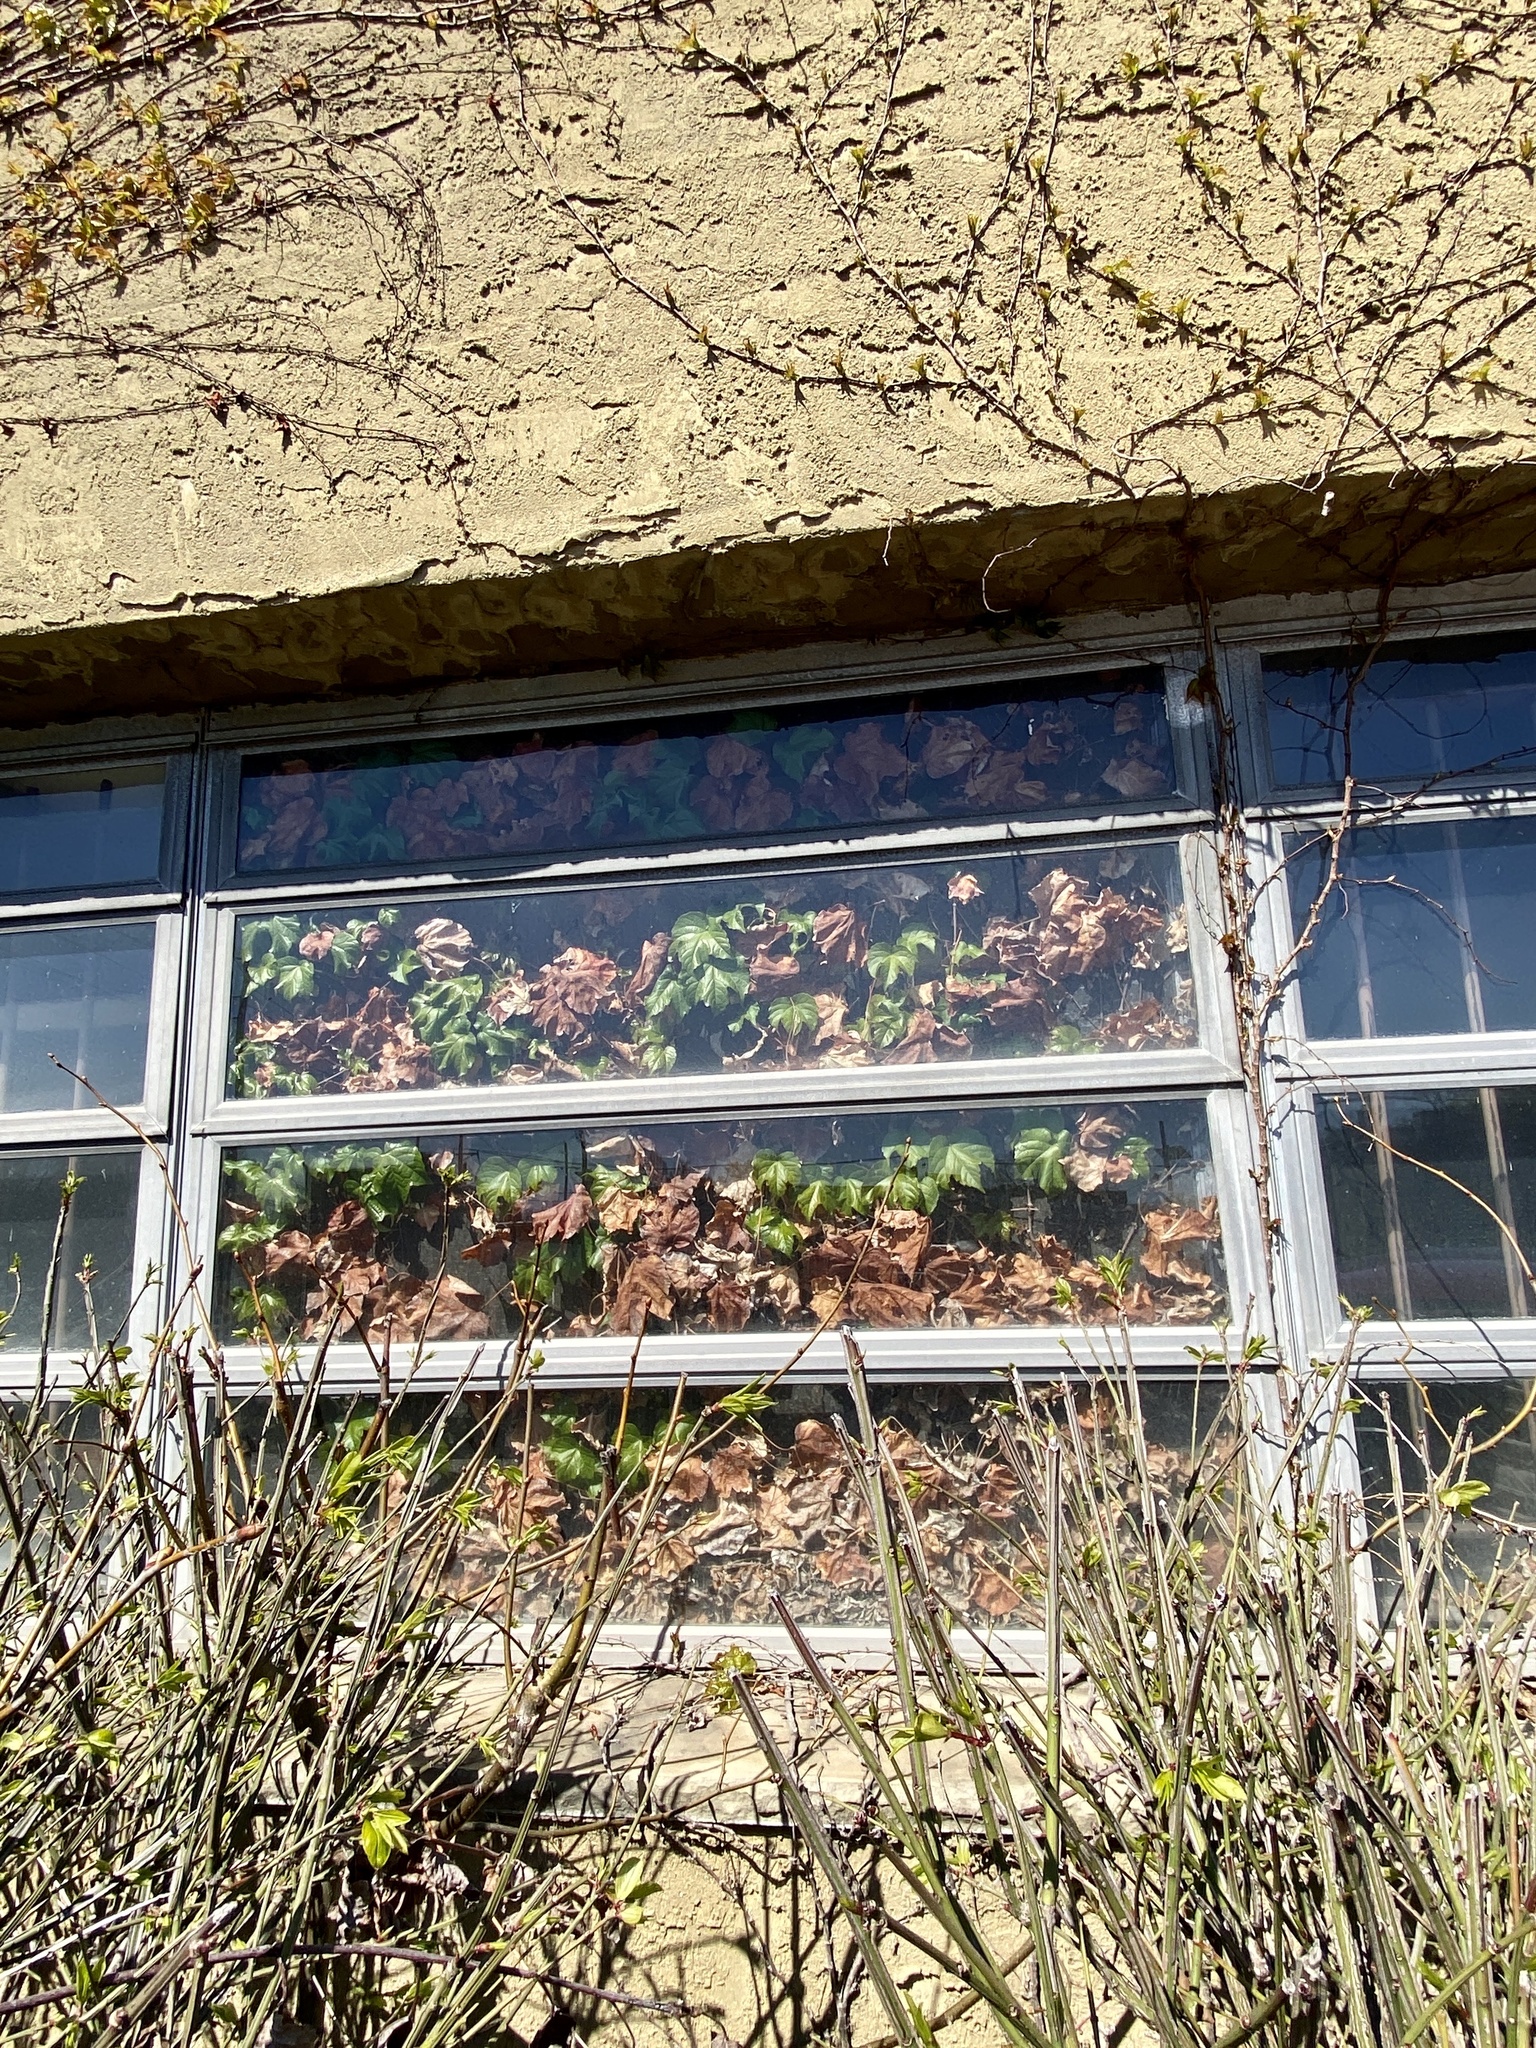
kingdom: Plantae
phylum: Tracheophyta
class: Magnoliopsida
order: Vitales
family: Vitaceae
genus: Parthenocissus
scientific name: Parthenocissus tricuspidata
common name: Boston ivy
